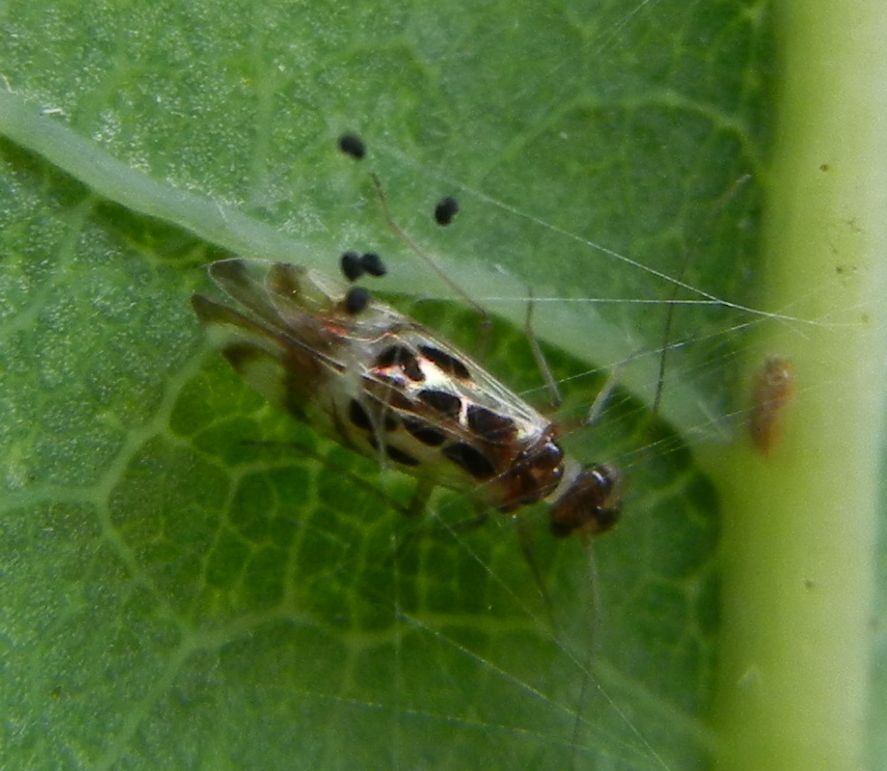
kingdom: Animalia
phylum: Arthropoda
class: Insecta
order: Psocodea
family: Stenopsocidae
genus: Graphopsocus
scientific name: Graphopsocus cruciatus
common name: Lizard bark louse
